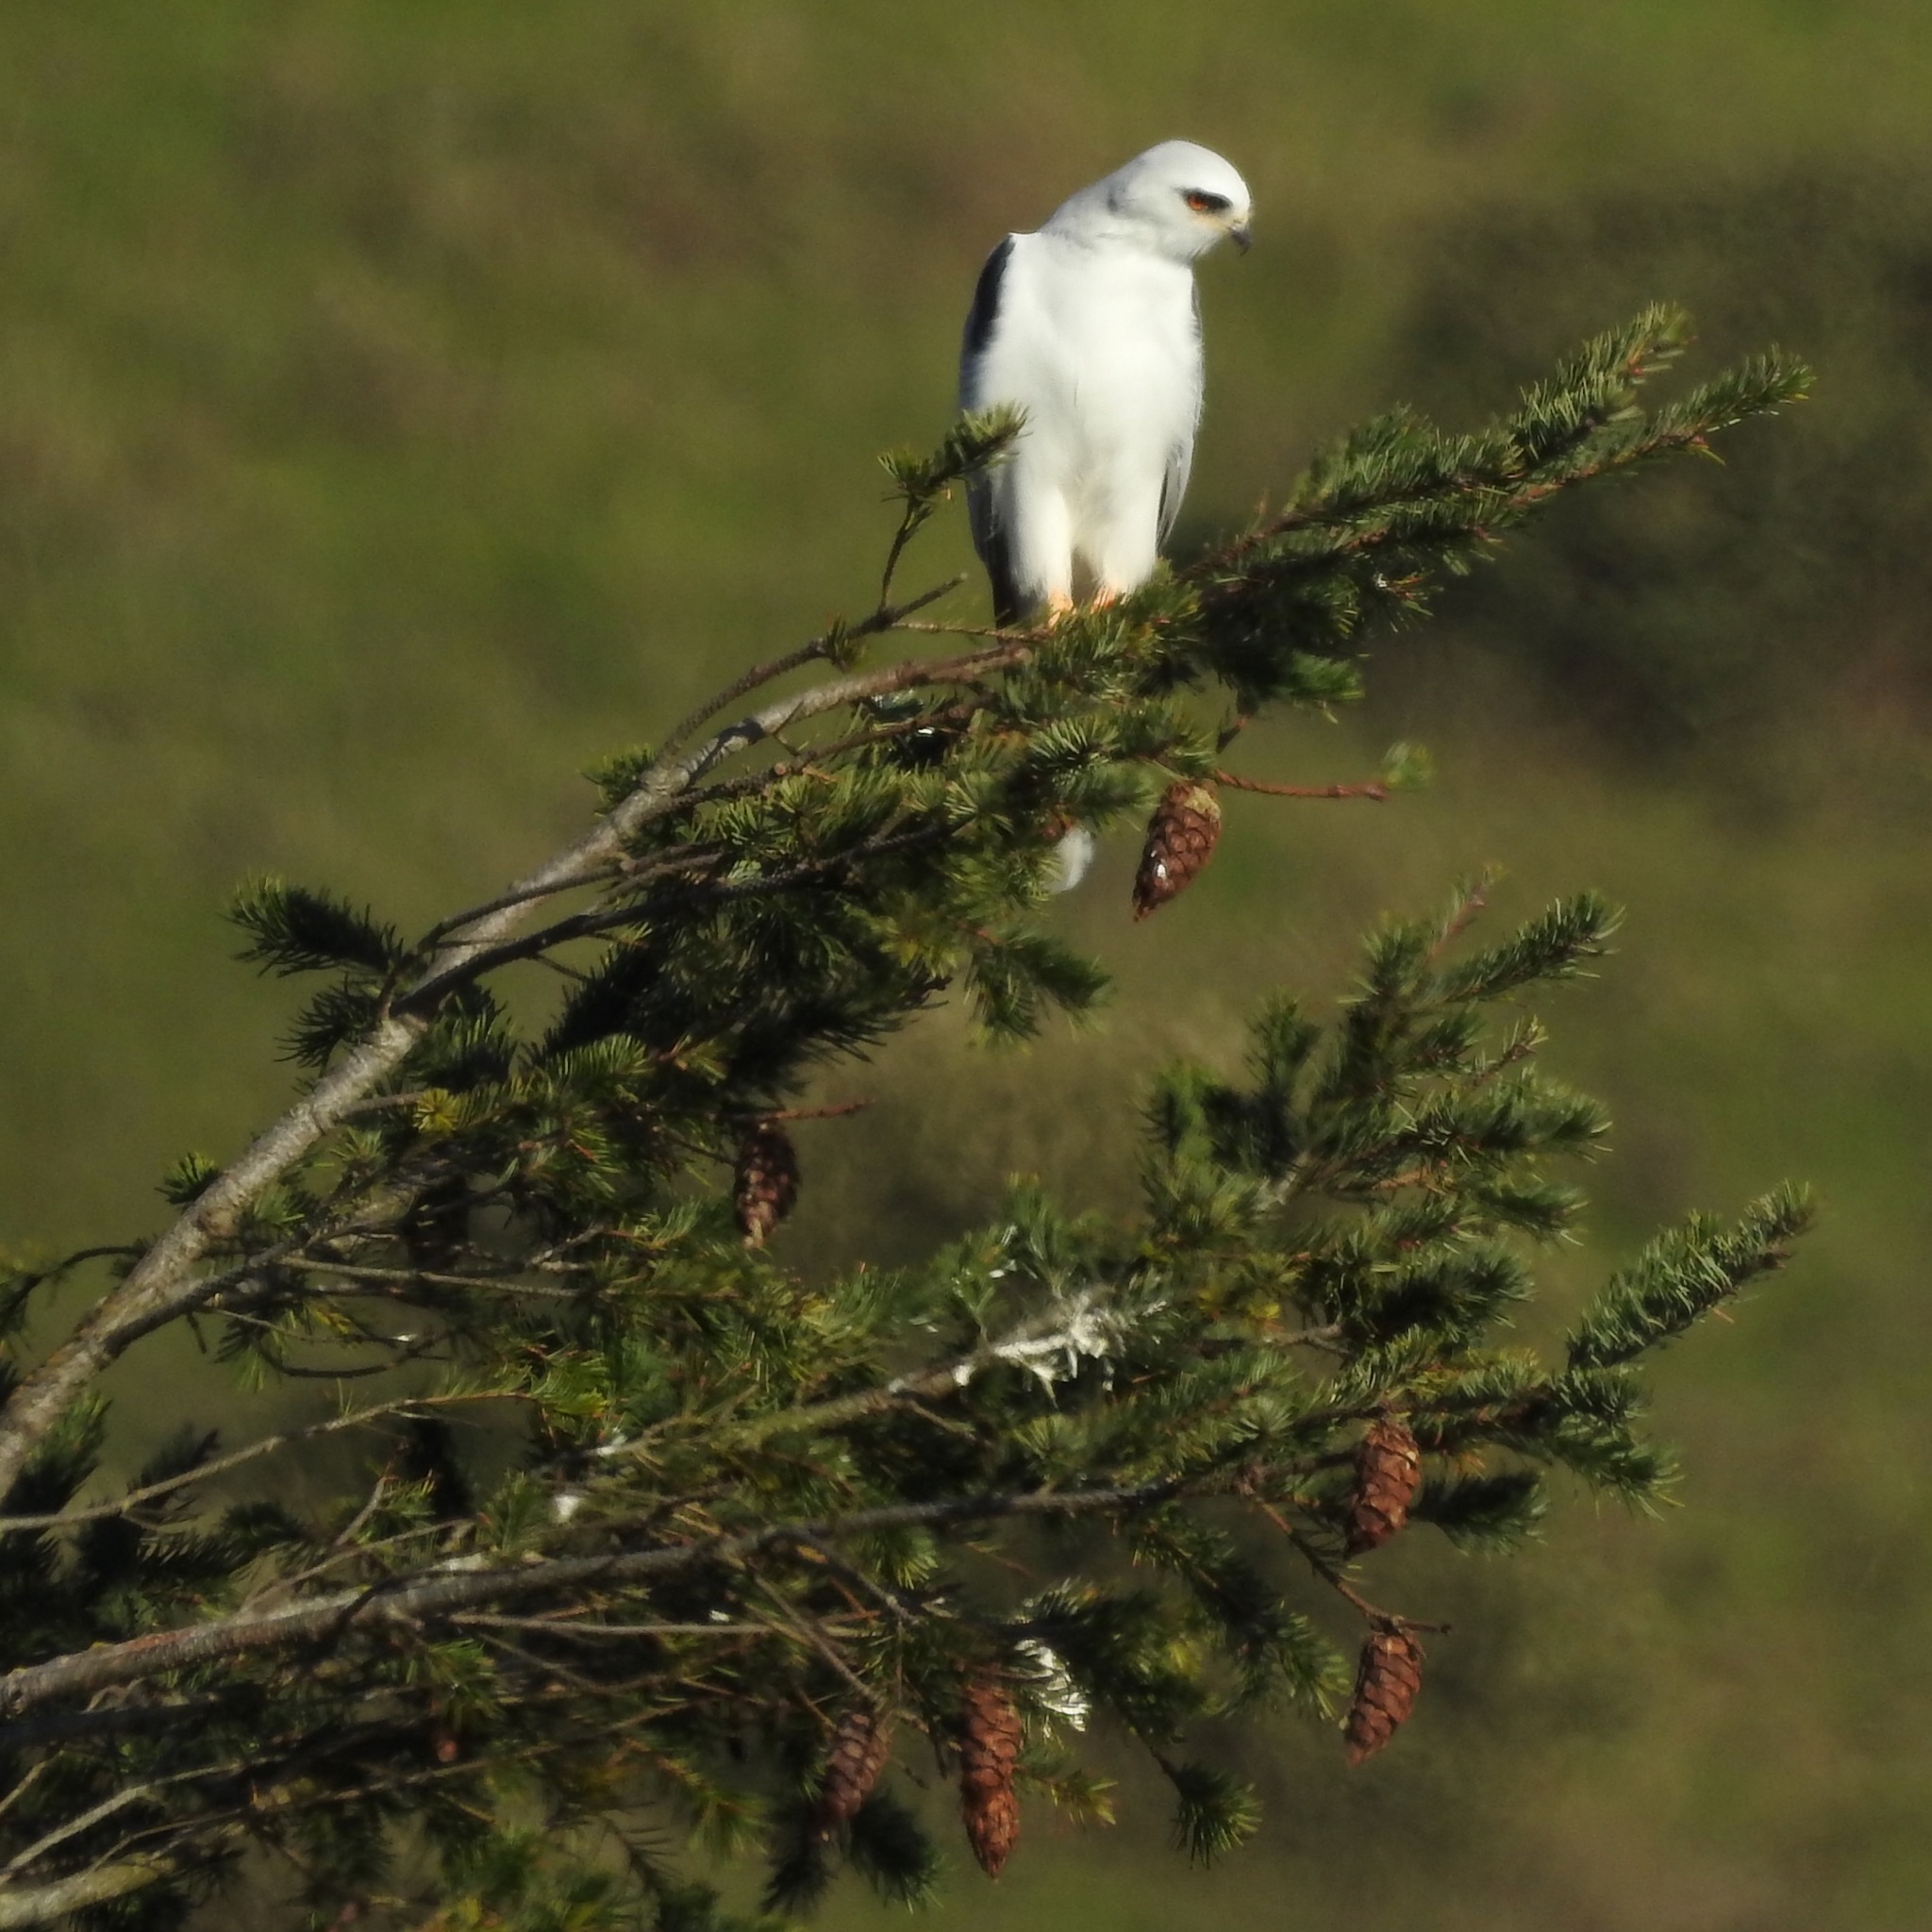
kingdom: Animalia
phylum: Chordata
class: Aves
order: Accipitriformes
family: Accipitridae
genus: Elanus
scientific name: Elanus leucurus
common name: White-tailed kite
